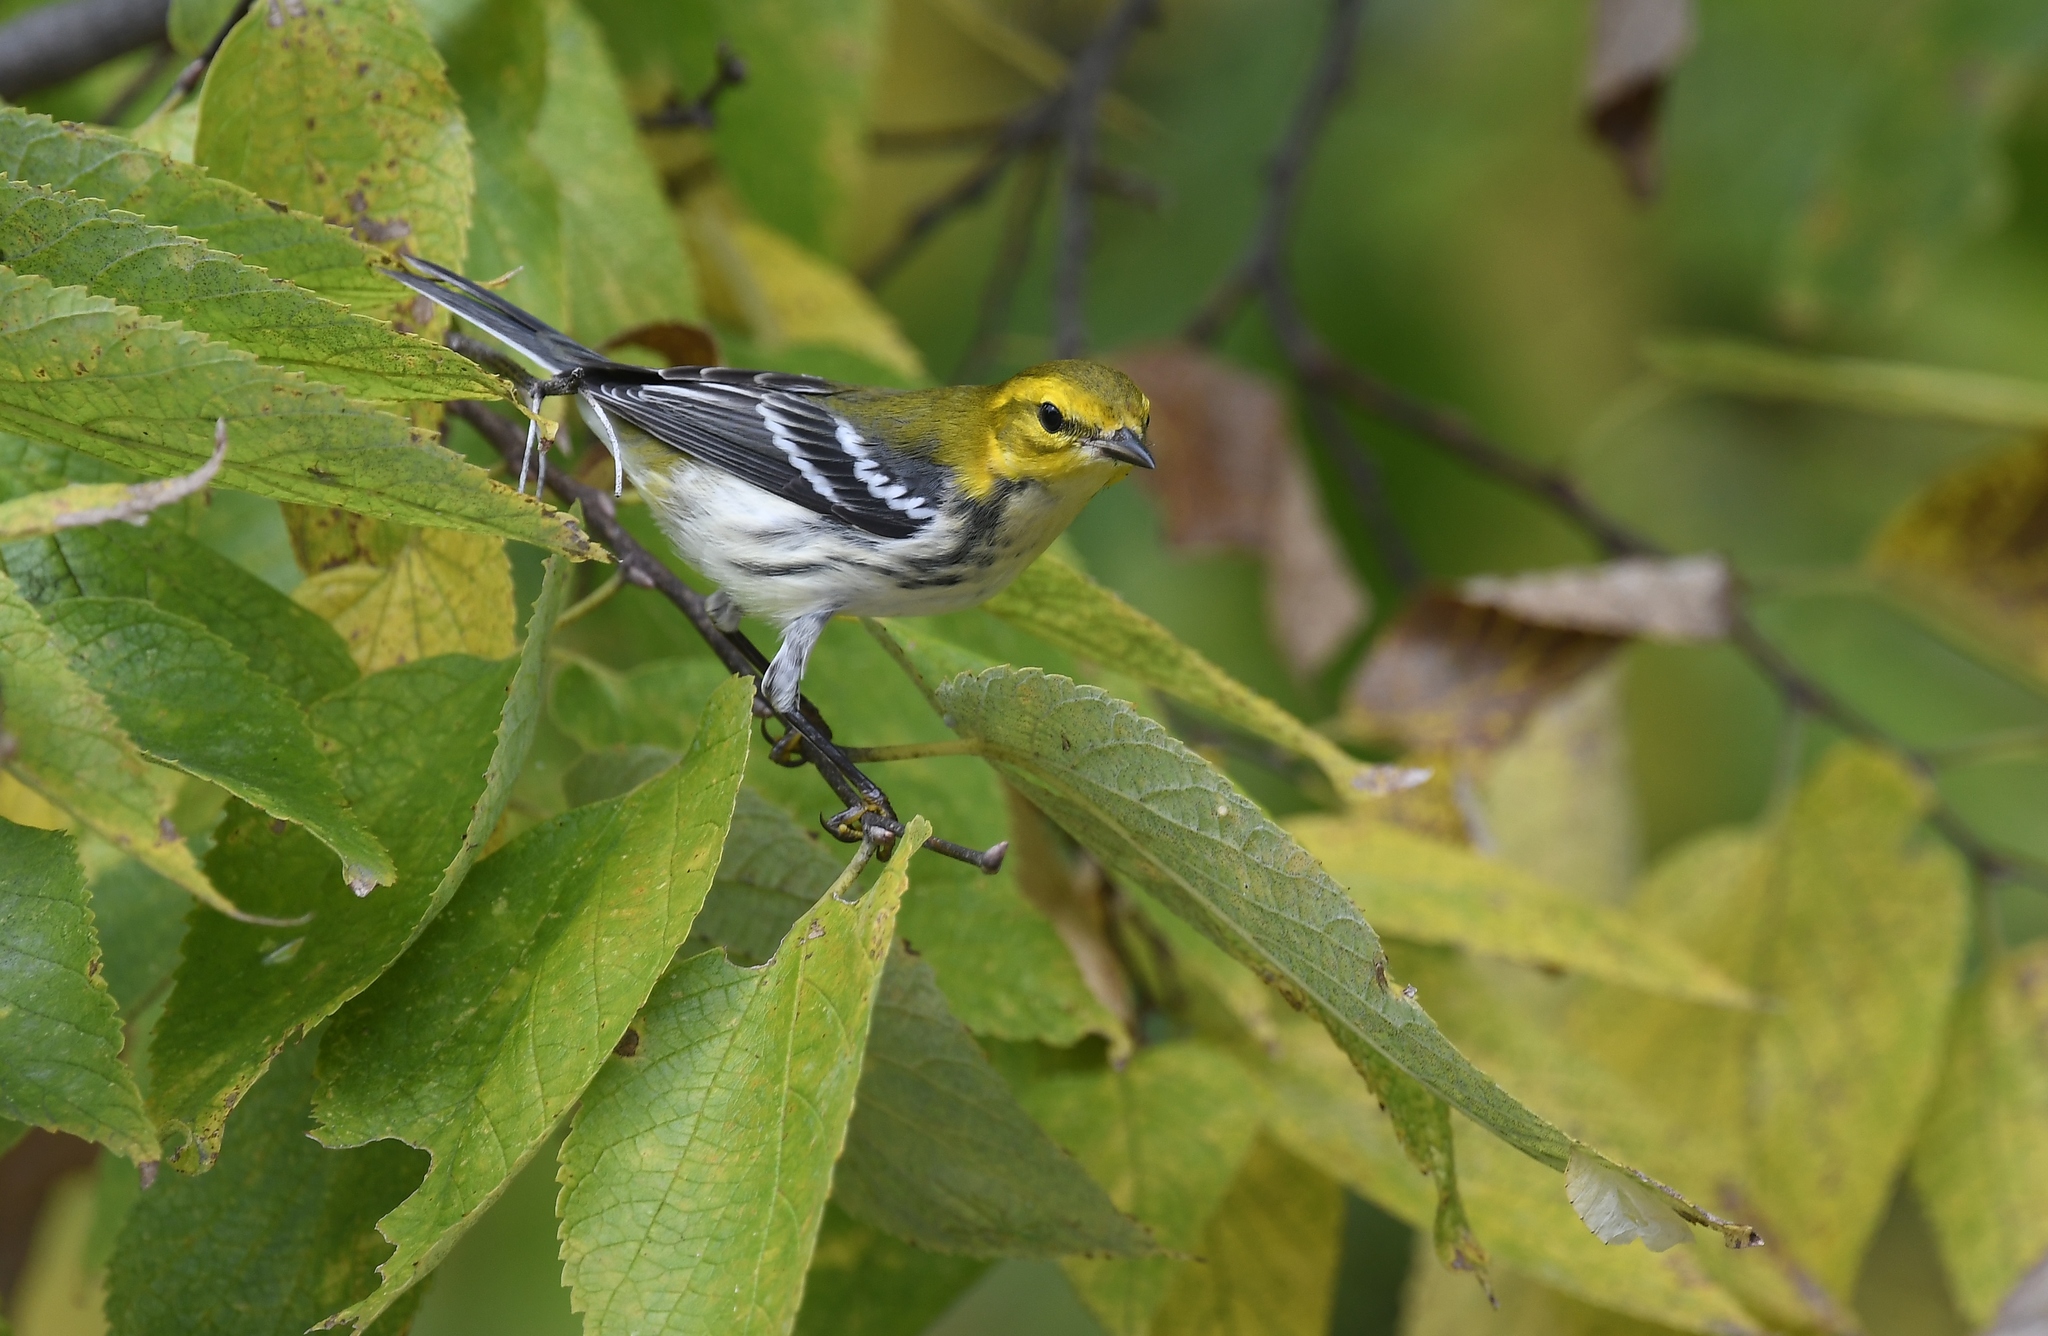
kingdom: Animalia
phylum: Chordata
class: Aves
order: Passeriformes
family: Parulidae
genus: Setophaga
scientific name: Setophaga virens
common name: Black-throated green warbler
